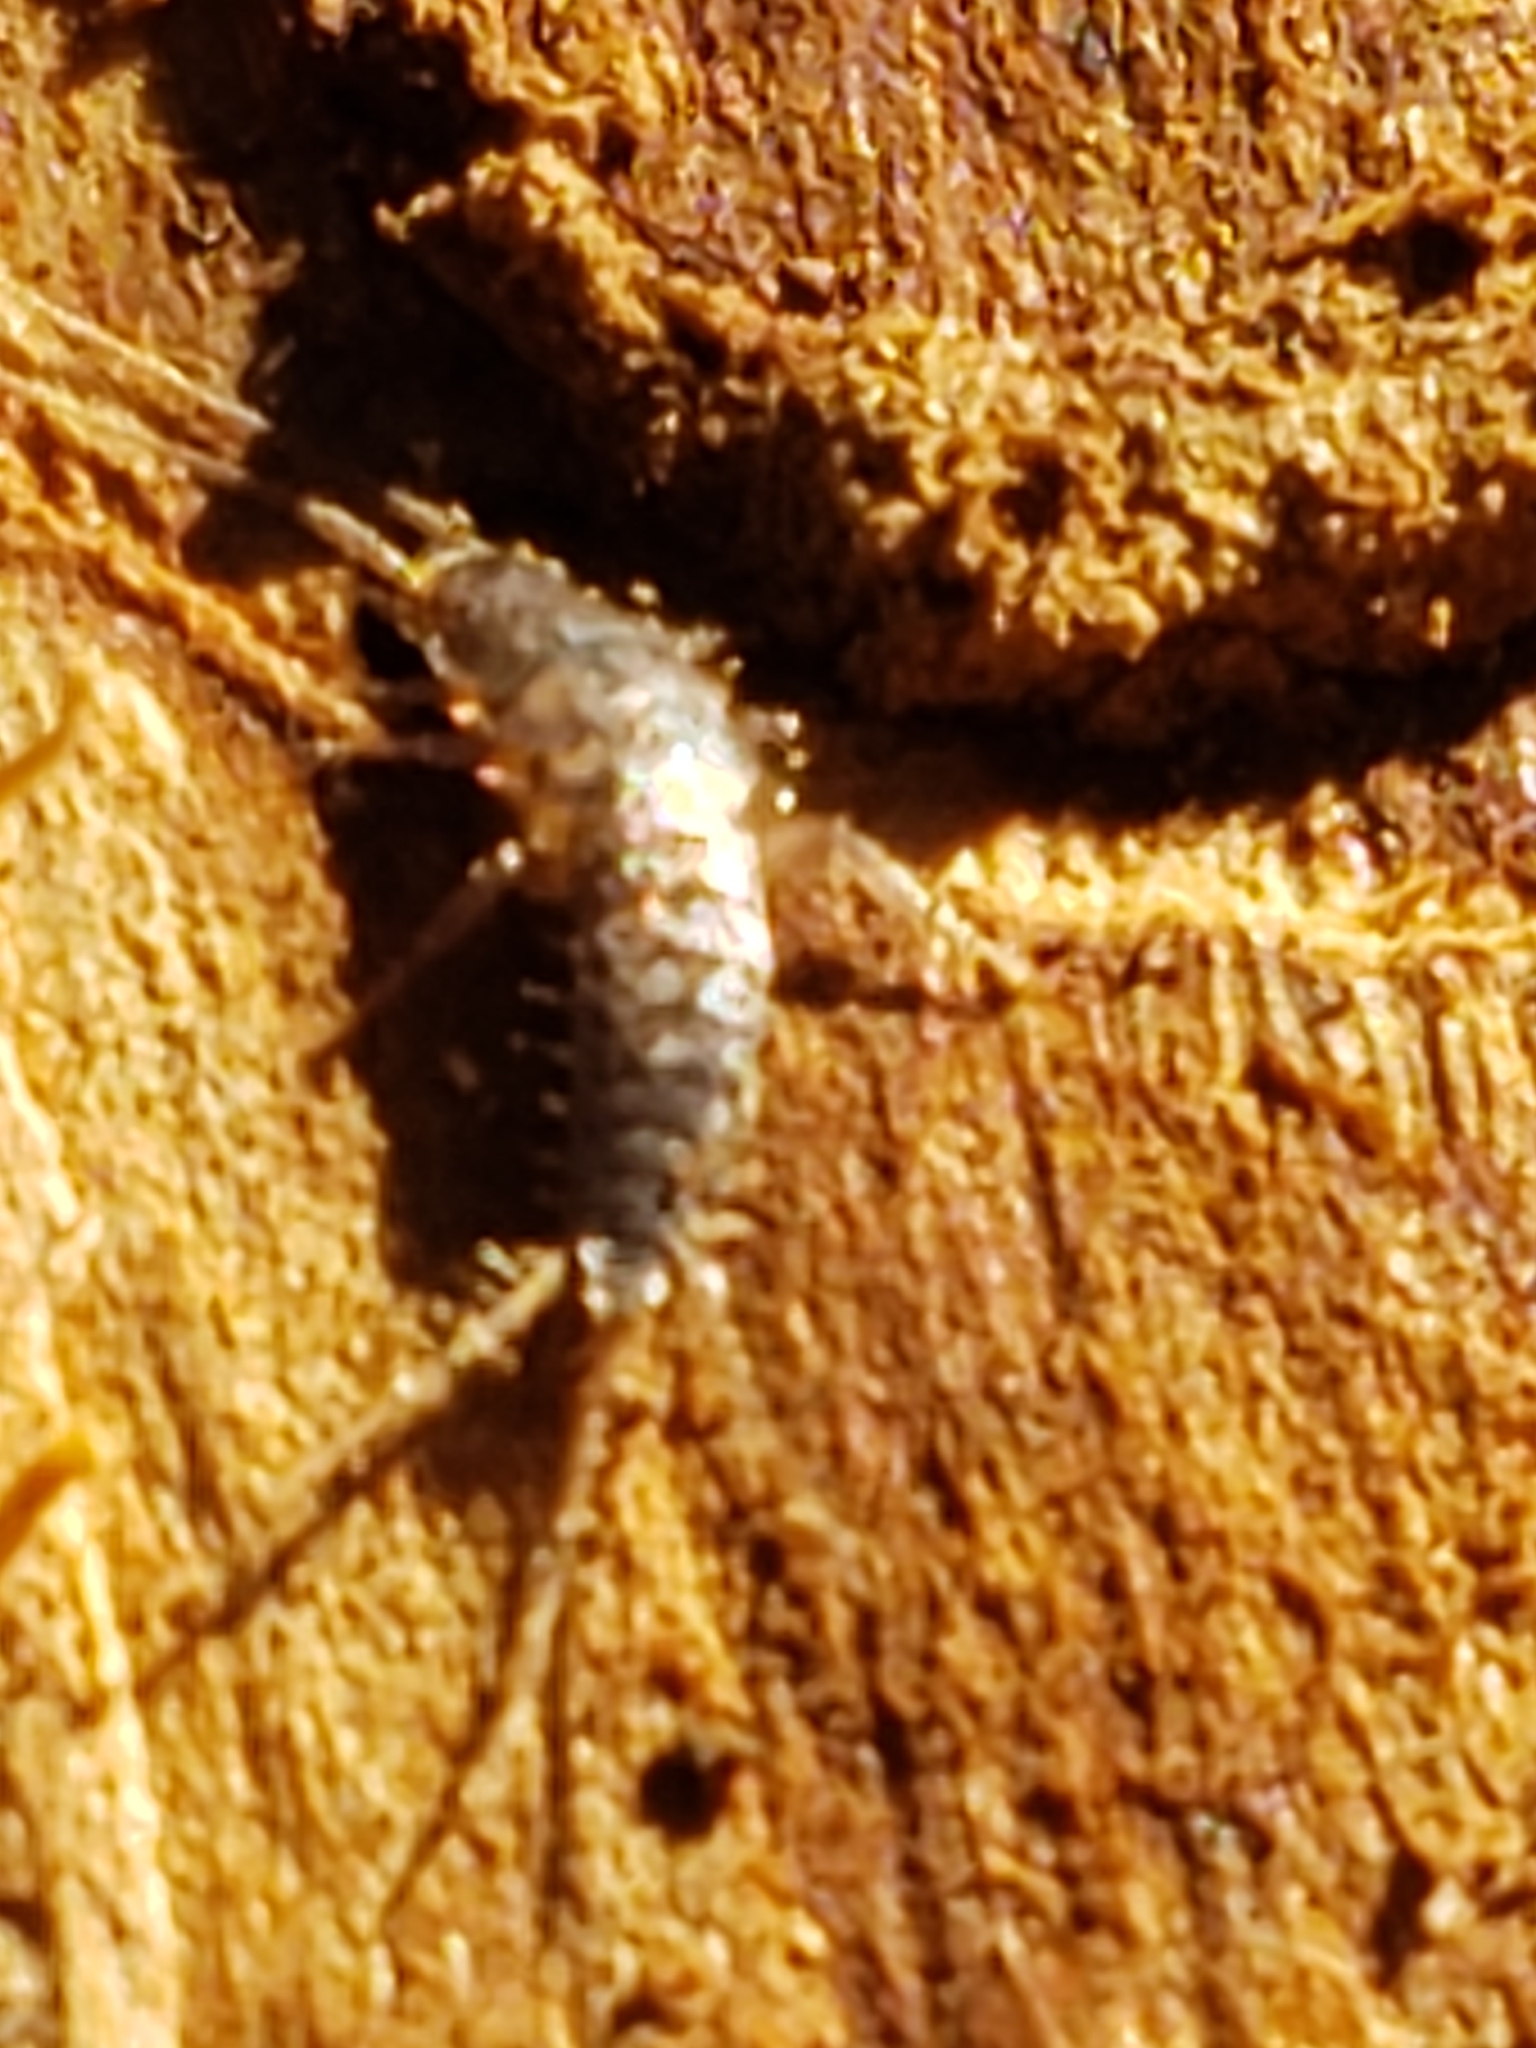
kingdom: Animalia
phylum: Arthropoda
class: Insecta
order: Zygentoma
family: Lepismatidae
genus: Allacrotelsa
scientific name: Allacrotelsa spinulata
